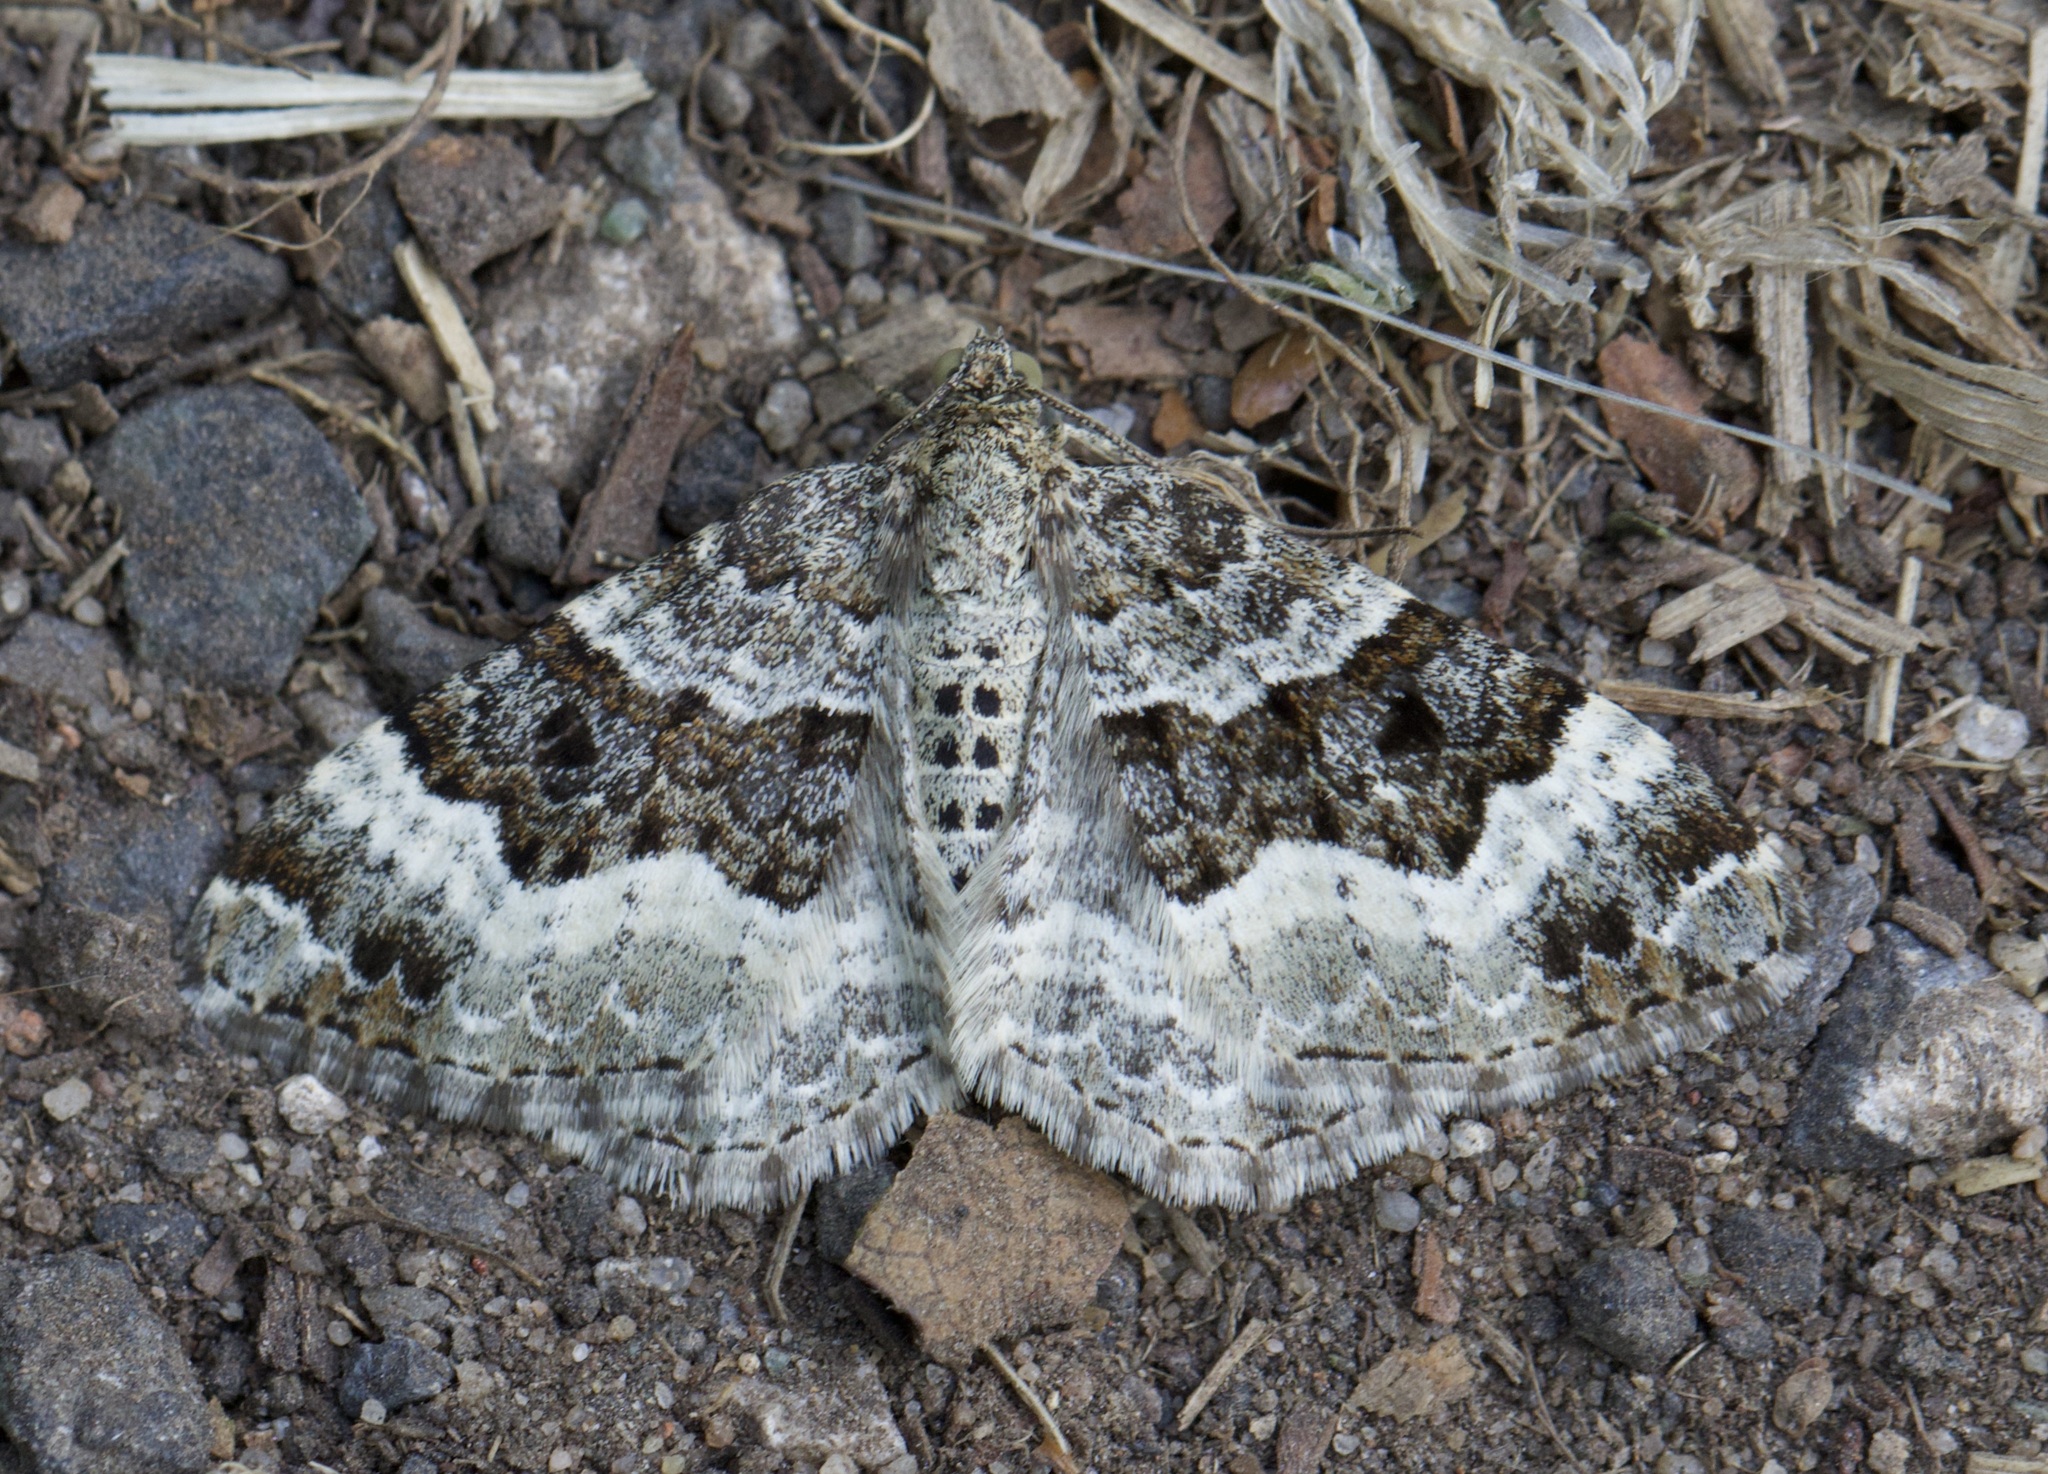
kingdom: Animalia
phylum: Arthropoda
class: Insecta
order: Lepidoptera
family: Geometridae
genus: Epirrhoe
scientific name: Epirrhoe alternata
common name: Common carpet
